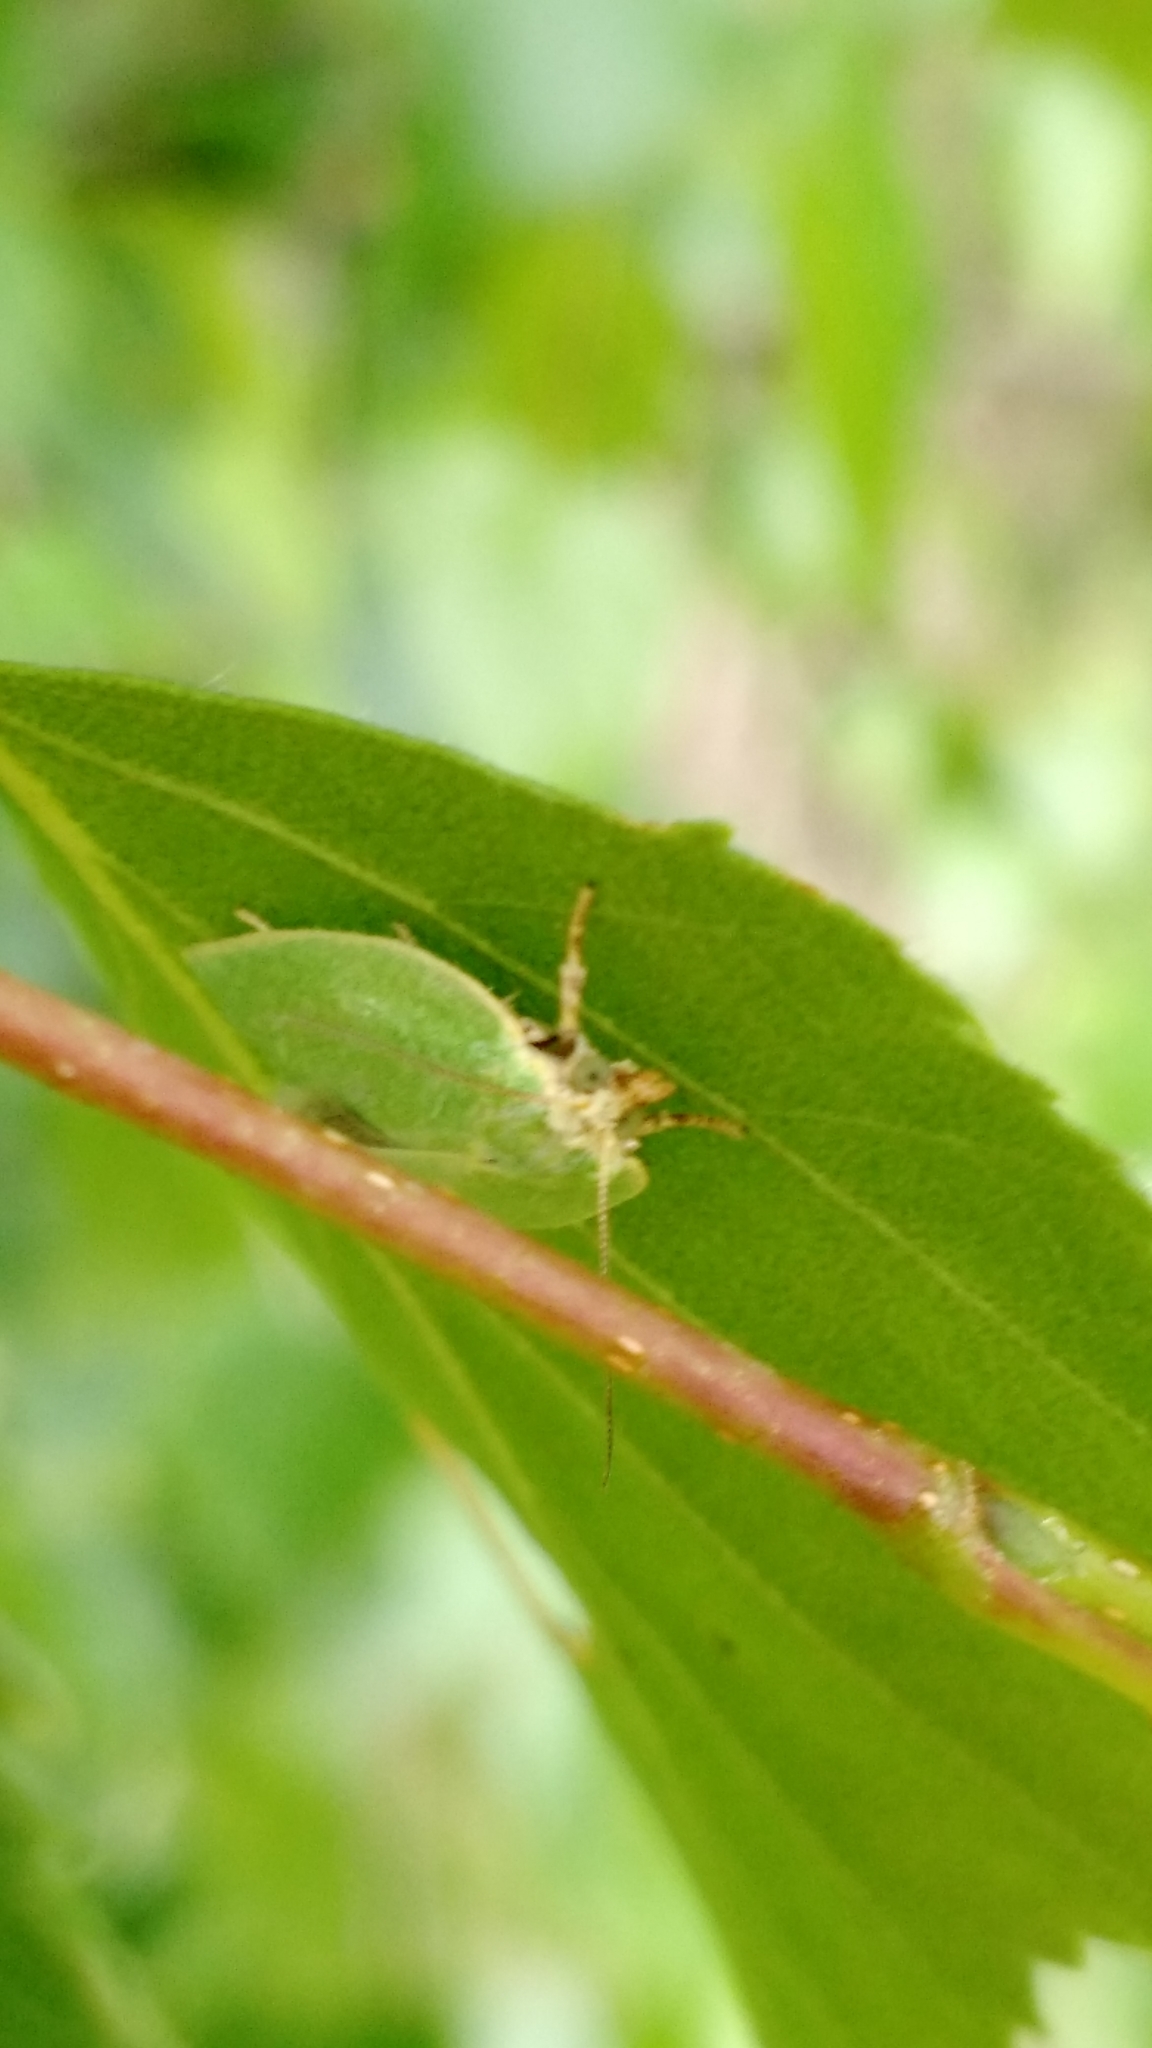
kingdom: Animalia
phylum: Arthropoda
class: Insecta
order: Lepidoptera
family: Tortricidae
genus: Tortrix
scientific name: Tortrix viridana
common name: Green oak tortrix
